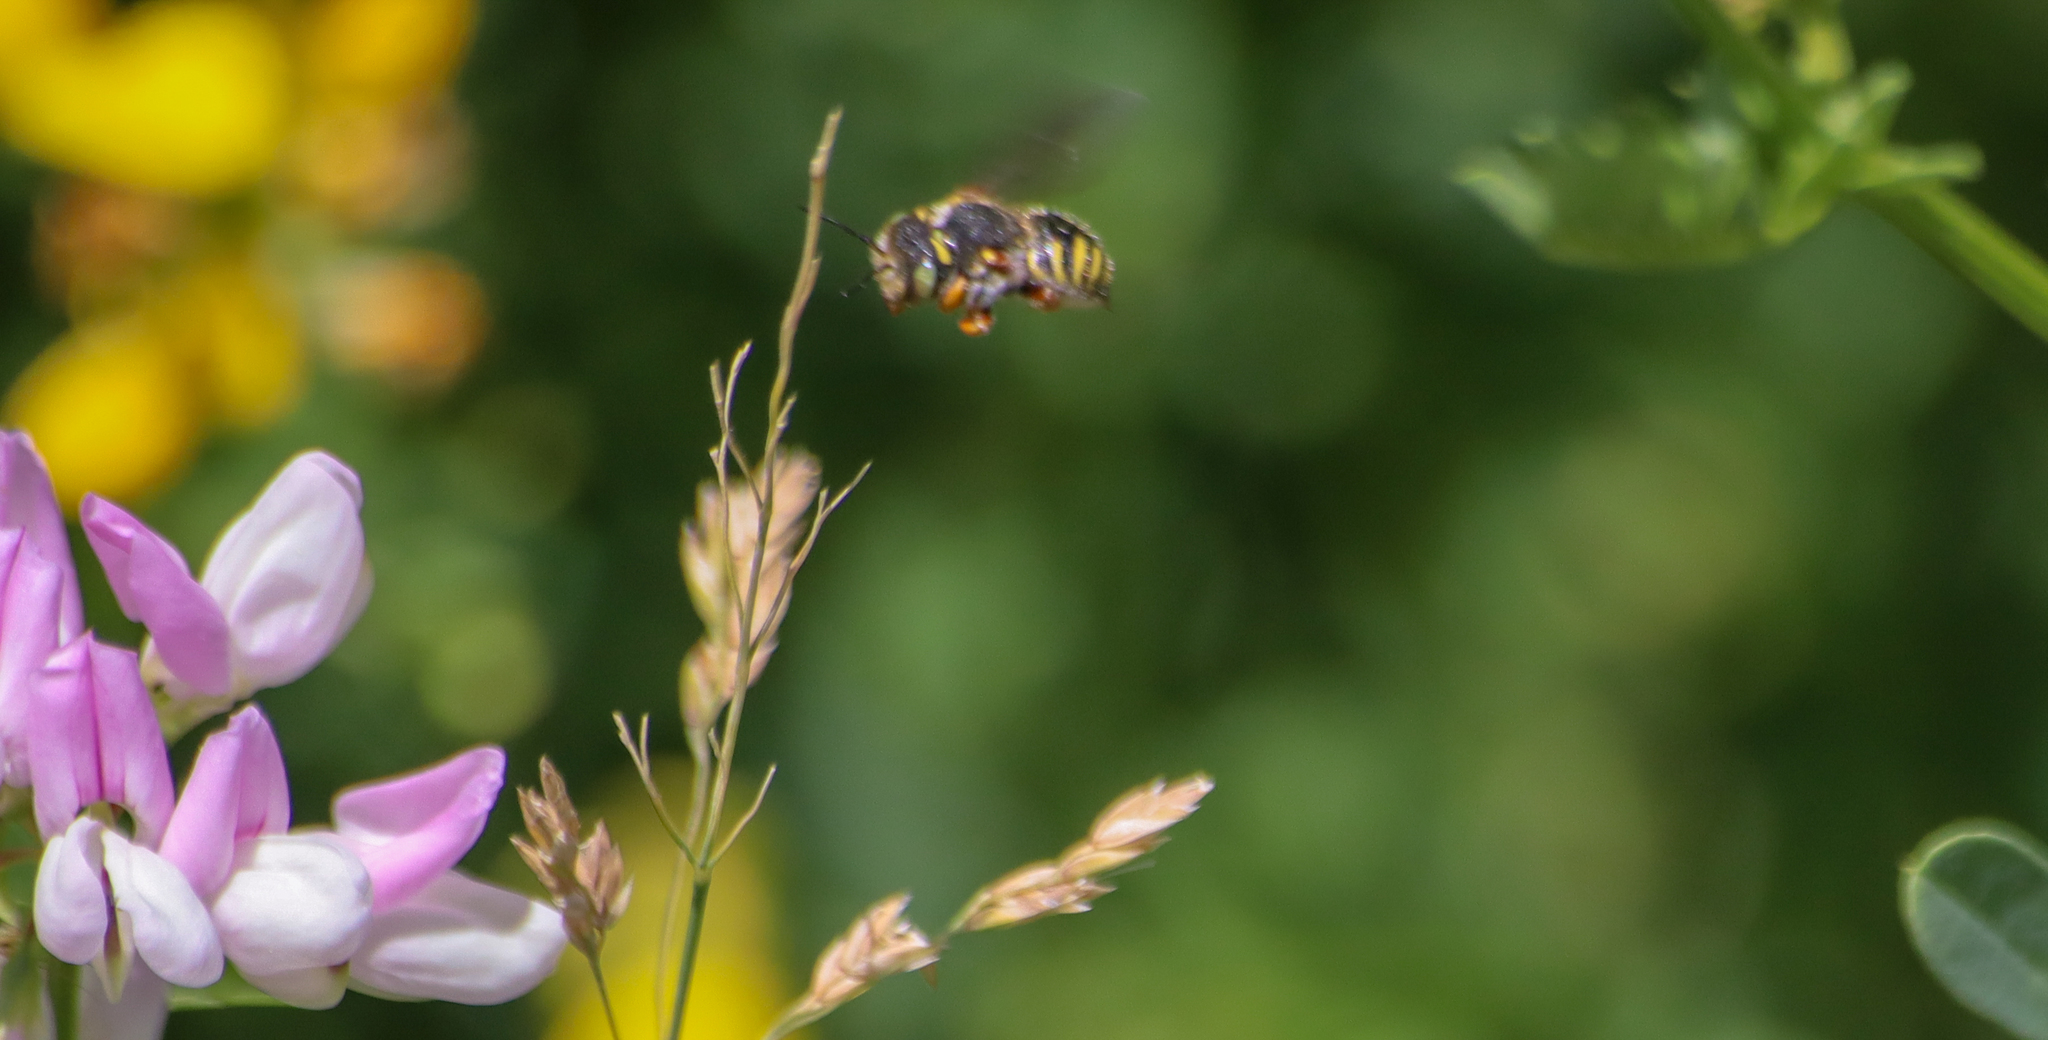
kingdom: Animalia
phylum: Arthropoda
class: Insecta
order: Hymenoptera
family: Megachilidae
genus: Anthidium
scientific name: Anthidium oblongatum
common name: Oblong wool carder bee
